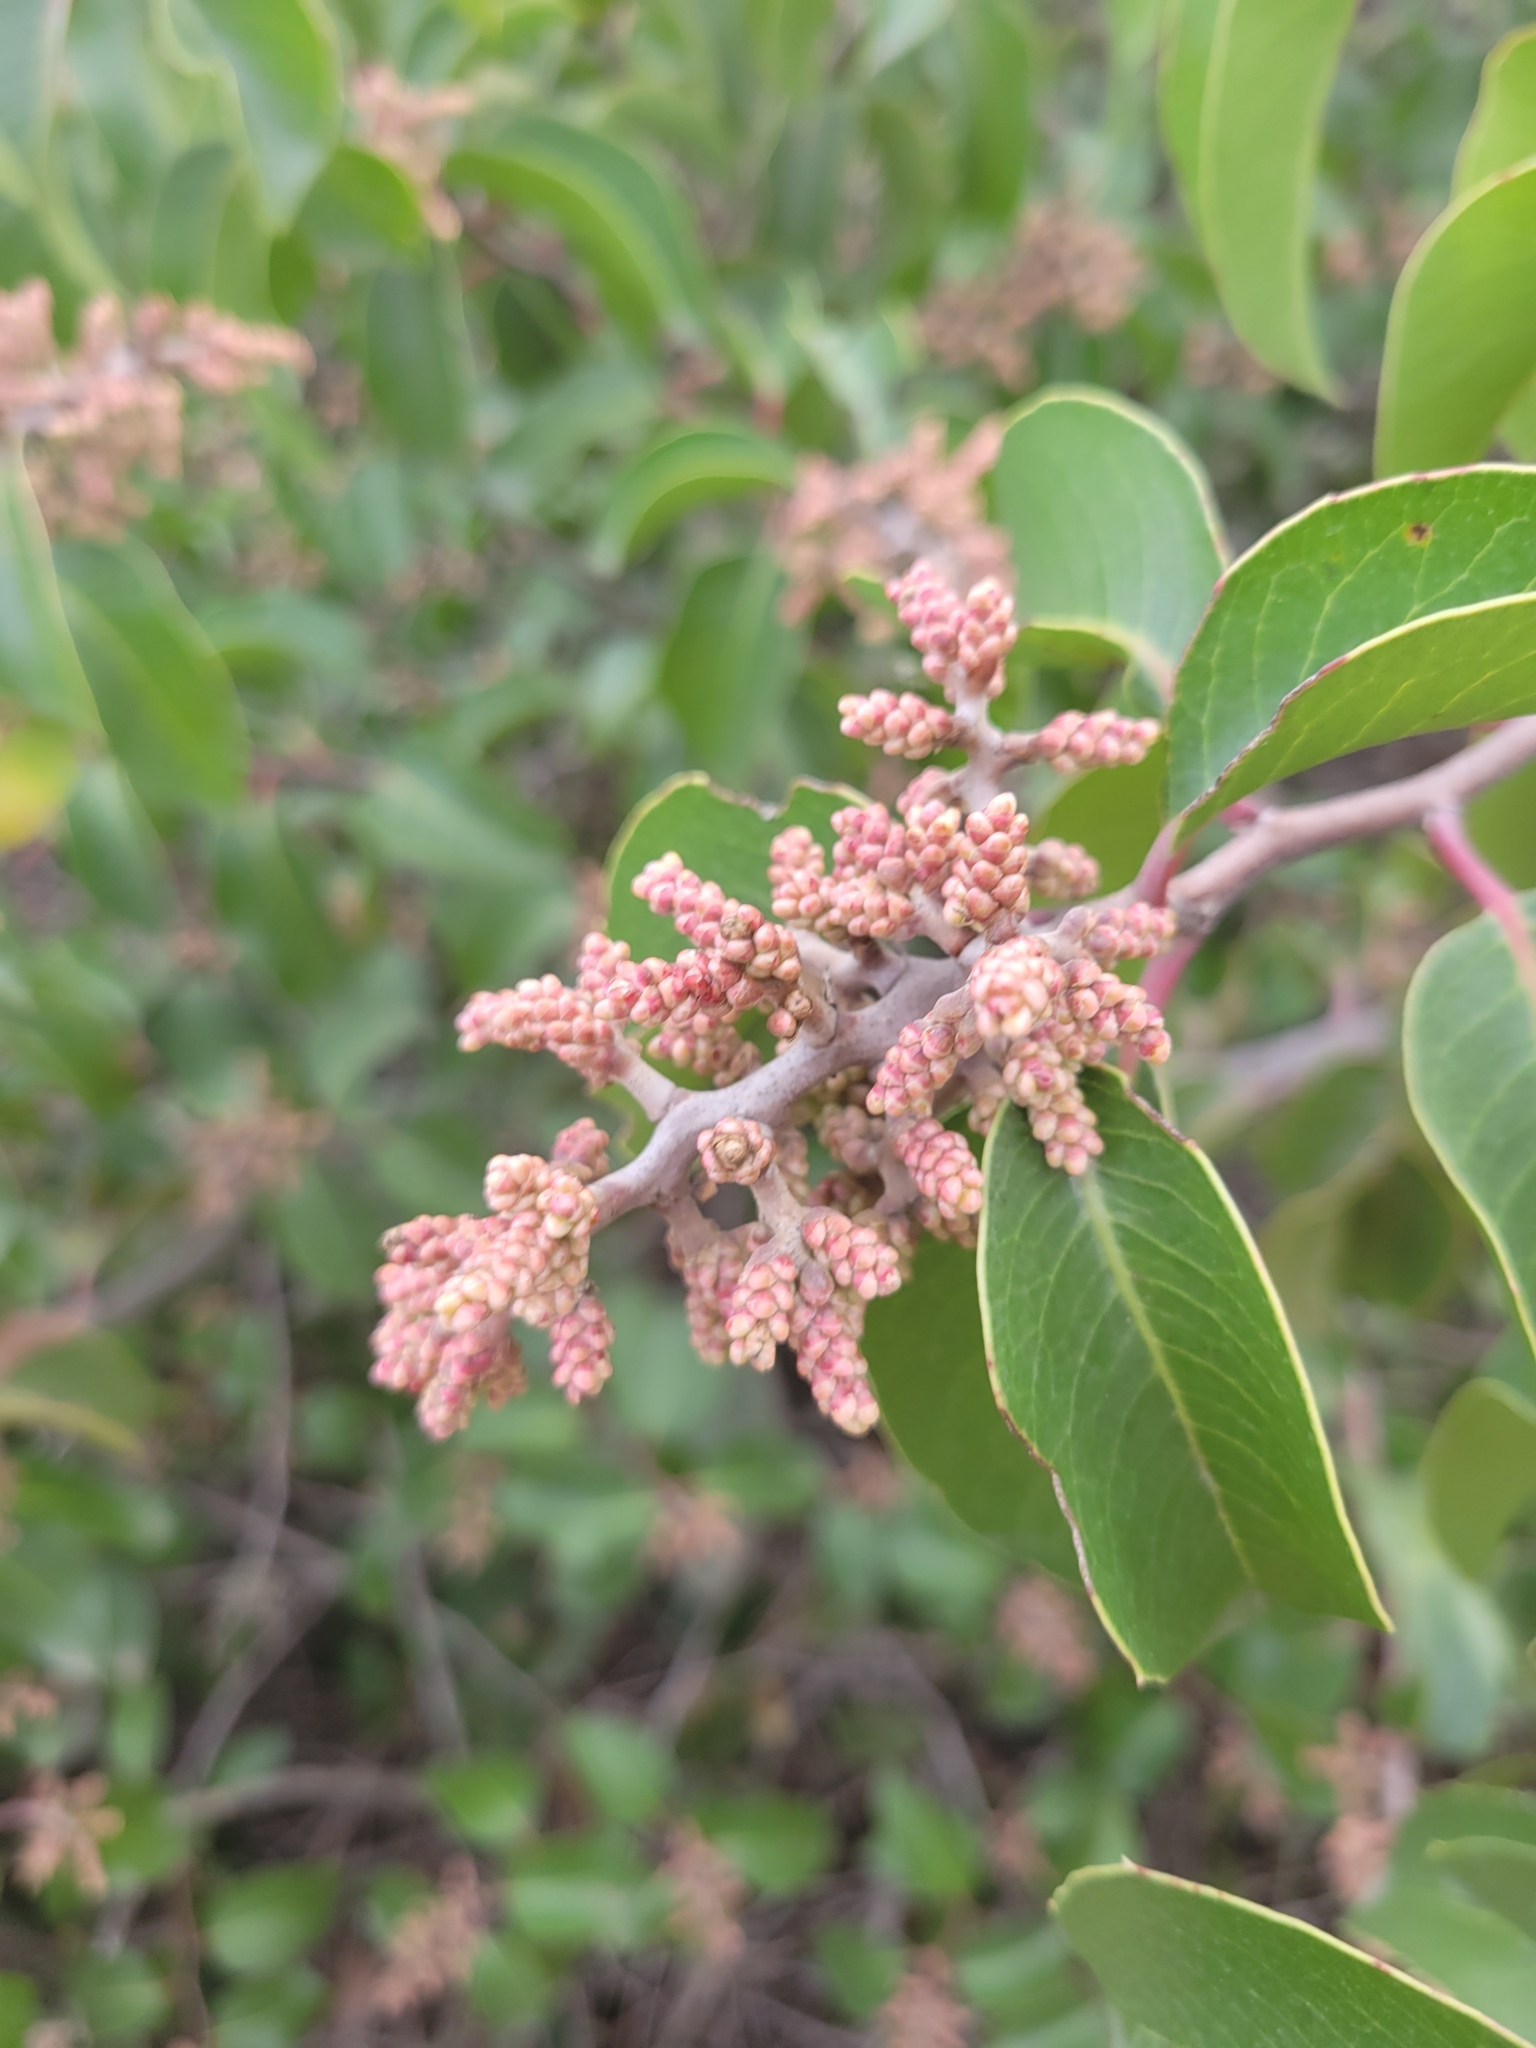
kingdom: Plantae
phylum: Tracheophyta
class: Magnoliopsida
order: Sapindales
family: Anacardiaceae
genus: Rhus
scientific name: Rhus ovata
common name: Sugar sumac
